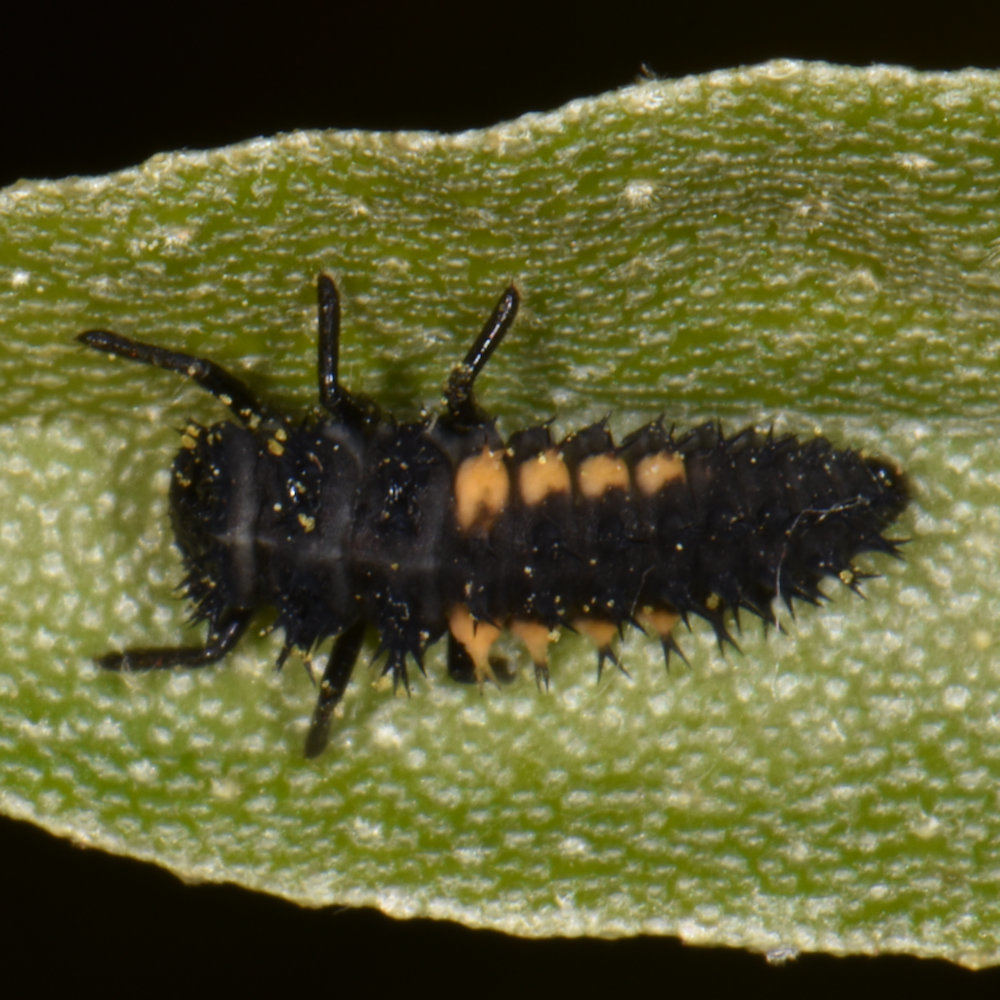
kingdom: Animalia
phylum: Arthropoda
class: Insecta
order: Coleoptera
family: Coccinellidae
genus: Harmonia
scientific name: Harmonia axyridis
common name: Harlequin ladybird
